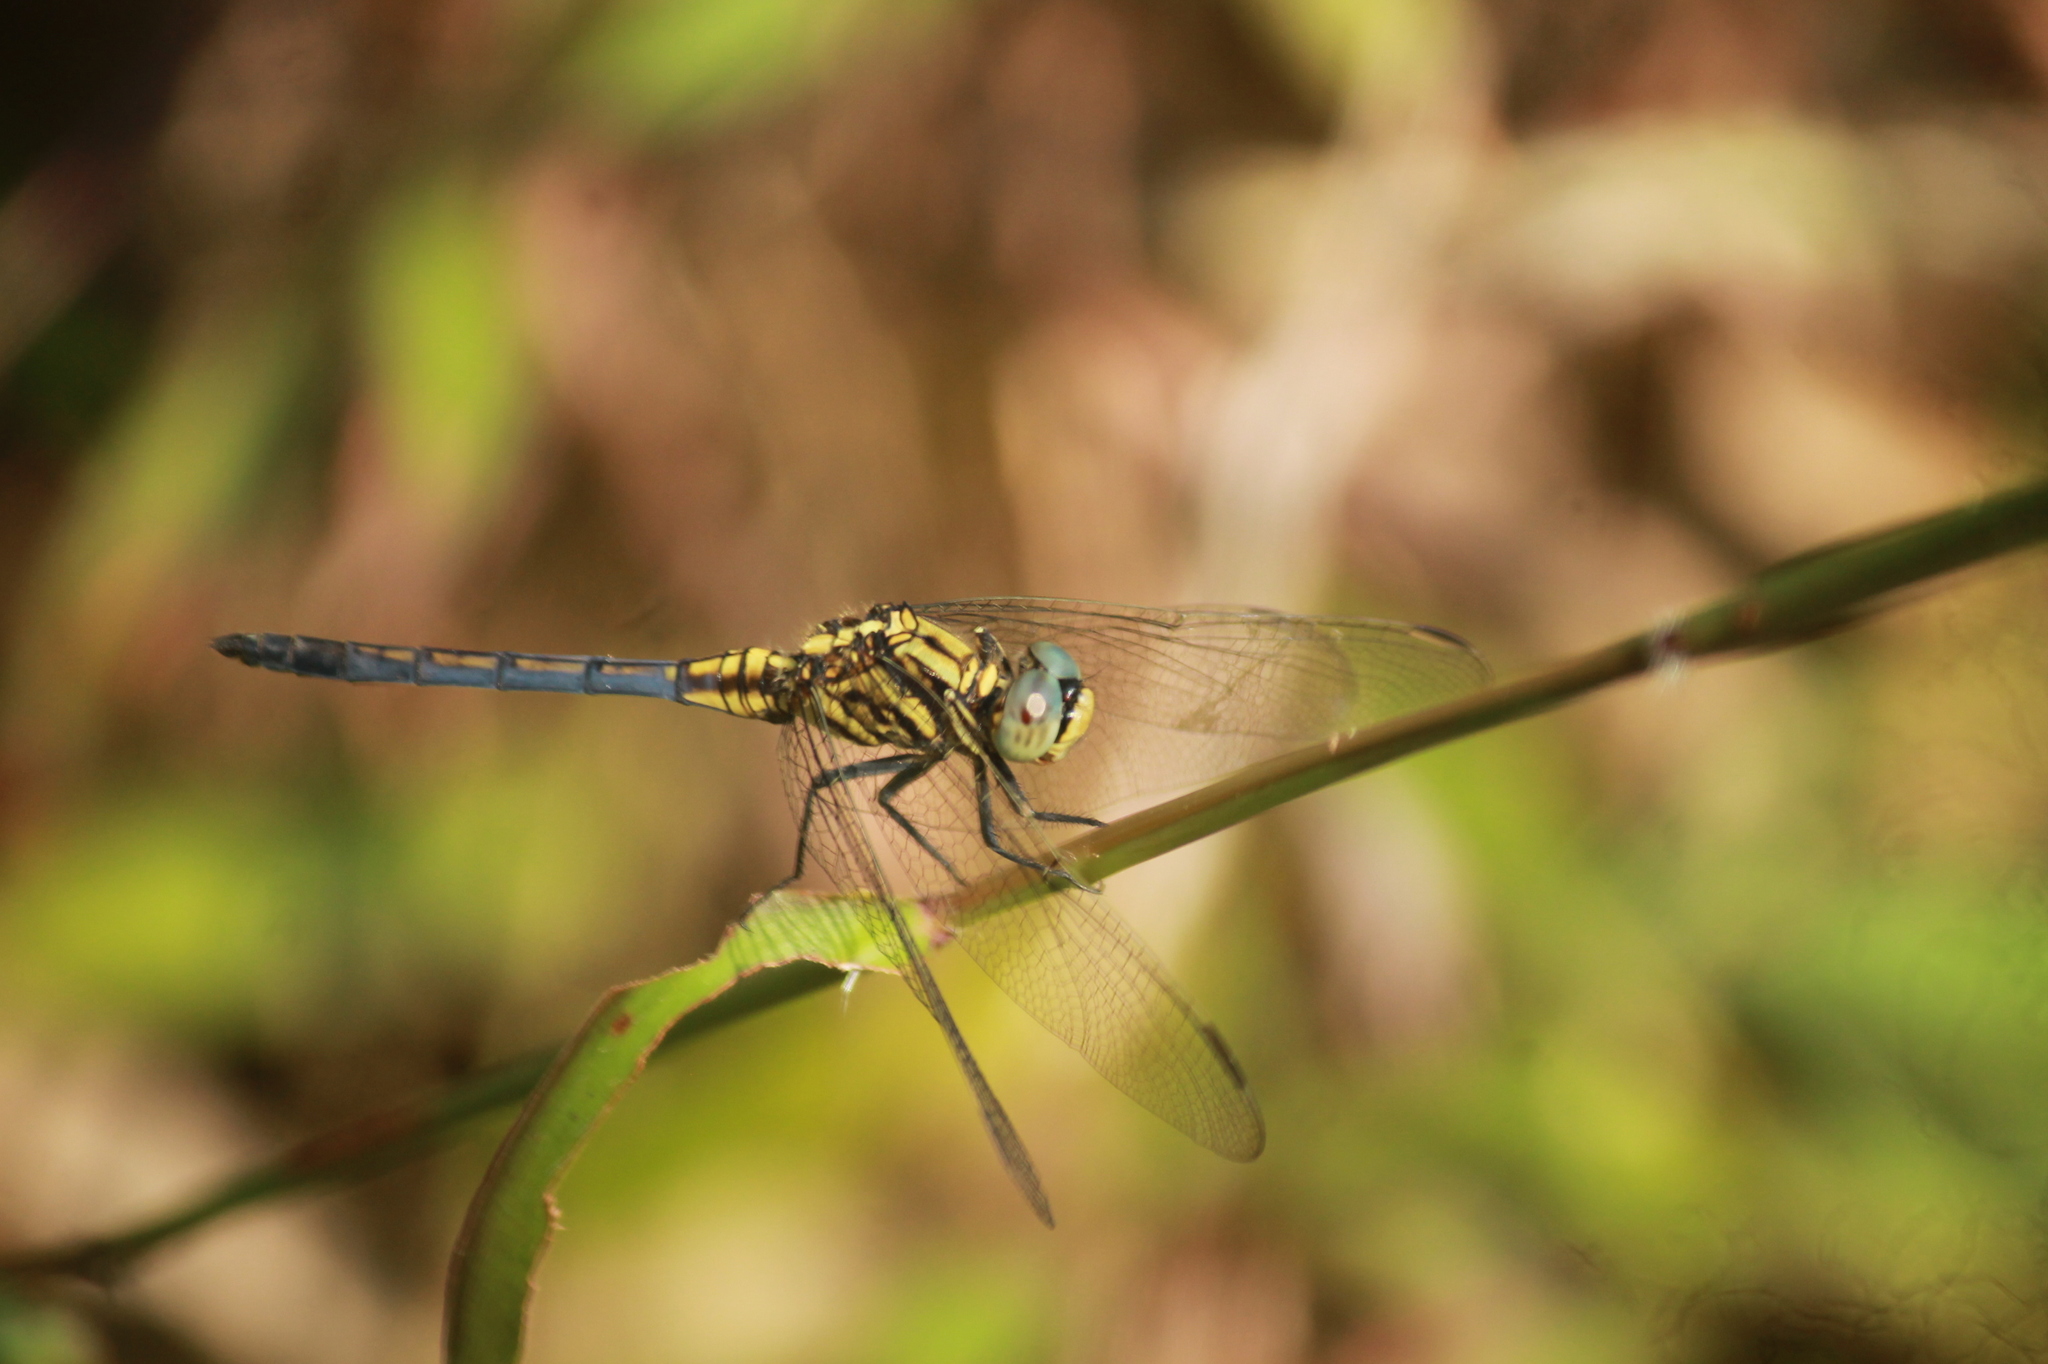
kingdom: Animalia
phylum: Arthropoda
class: Insecta
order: Odonata
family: Libellulidae
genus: Orthetrum
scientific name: Orthetrum luzonicum
